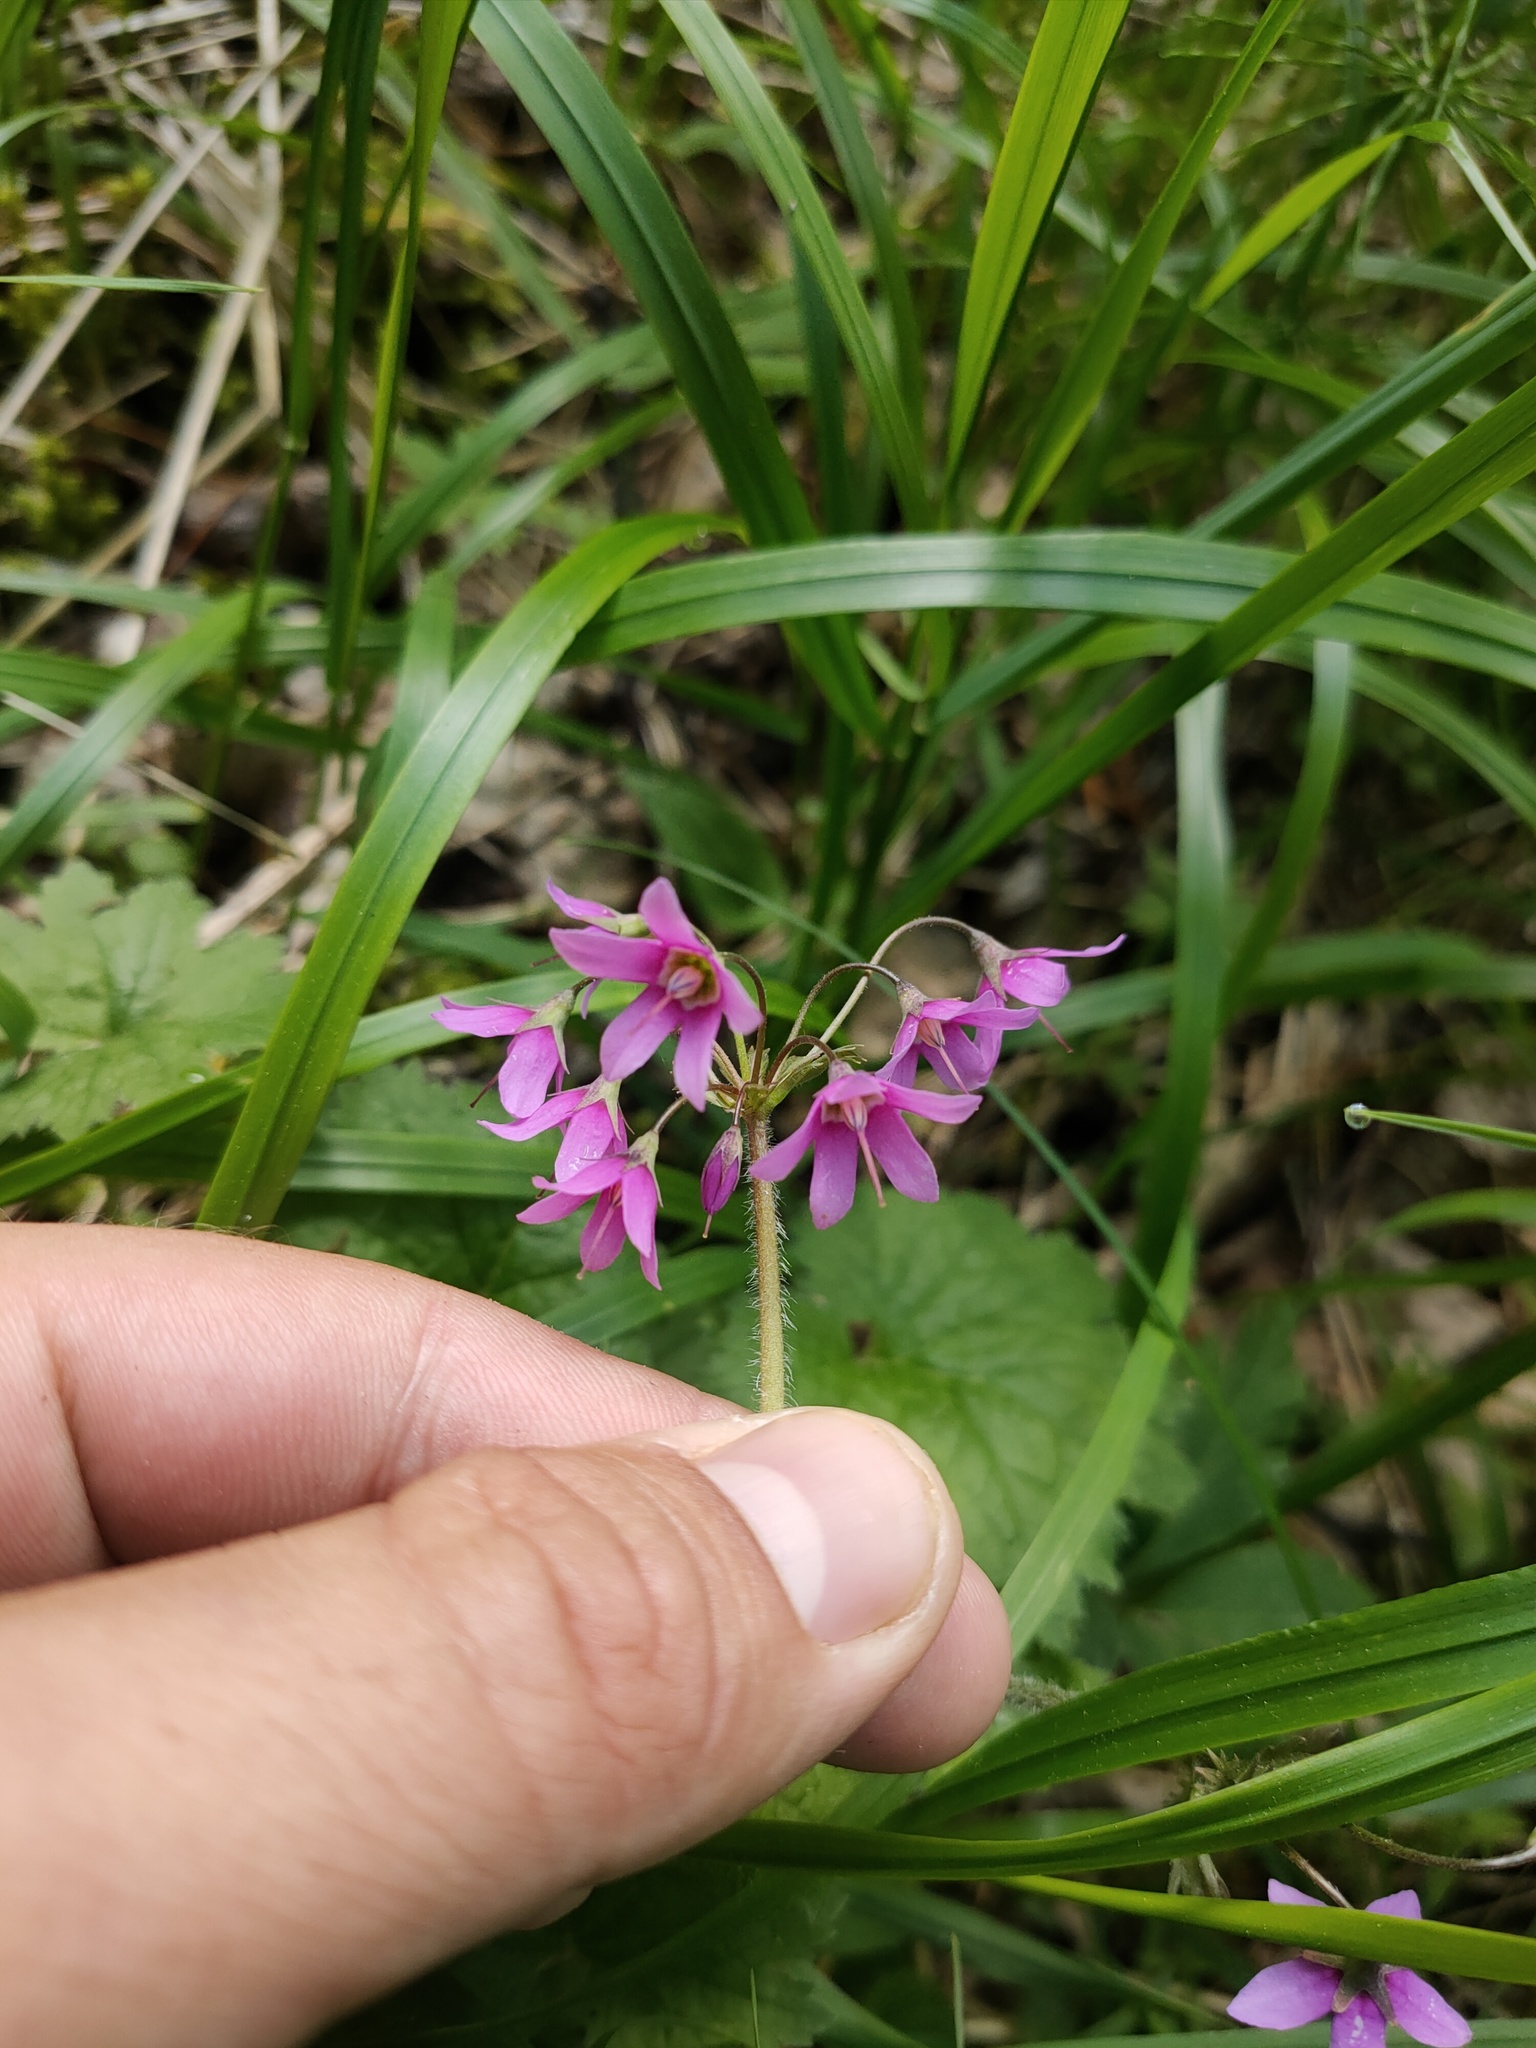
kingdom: Plantae
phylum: Tracheophyta
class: Magnoliopsida
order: Ericales
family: Primulaceae
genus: Primula
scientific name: Primula matthioli
